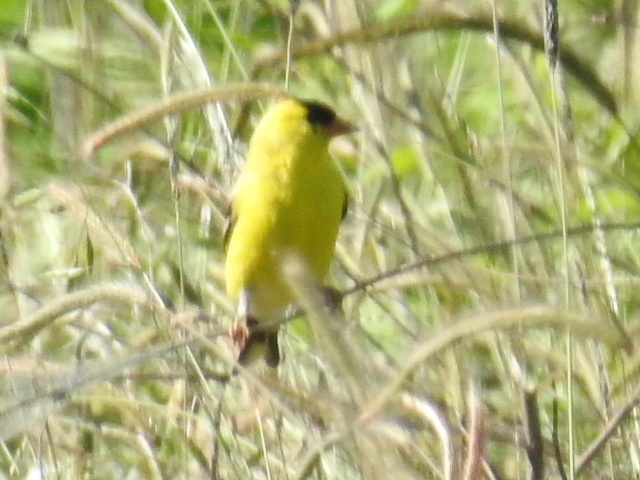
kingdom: Animalia
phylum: Chordata
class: Aves
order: Passeriformes
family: Fringillidae
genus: Spinus
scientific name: Spinus tristis
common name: American goldfinch
